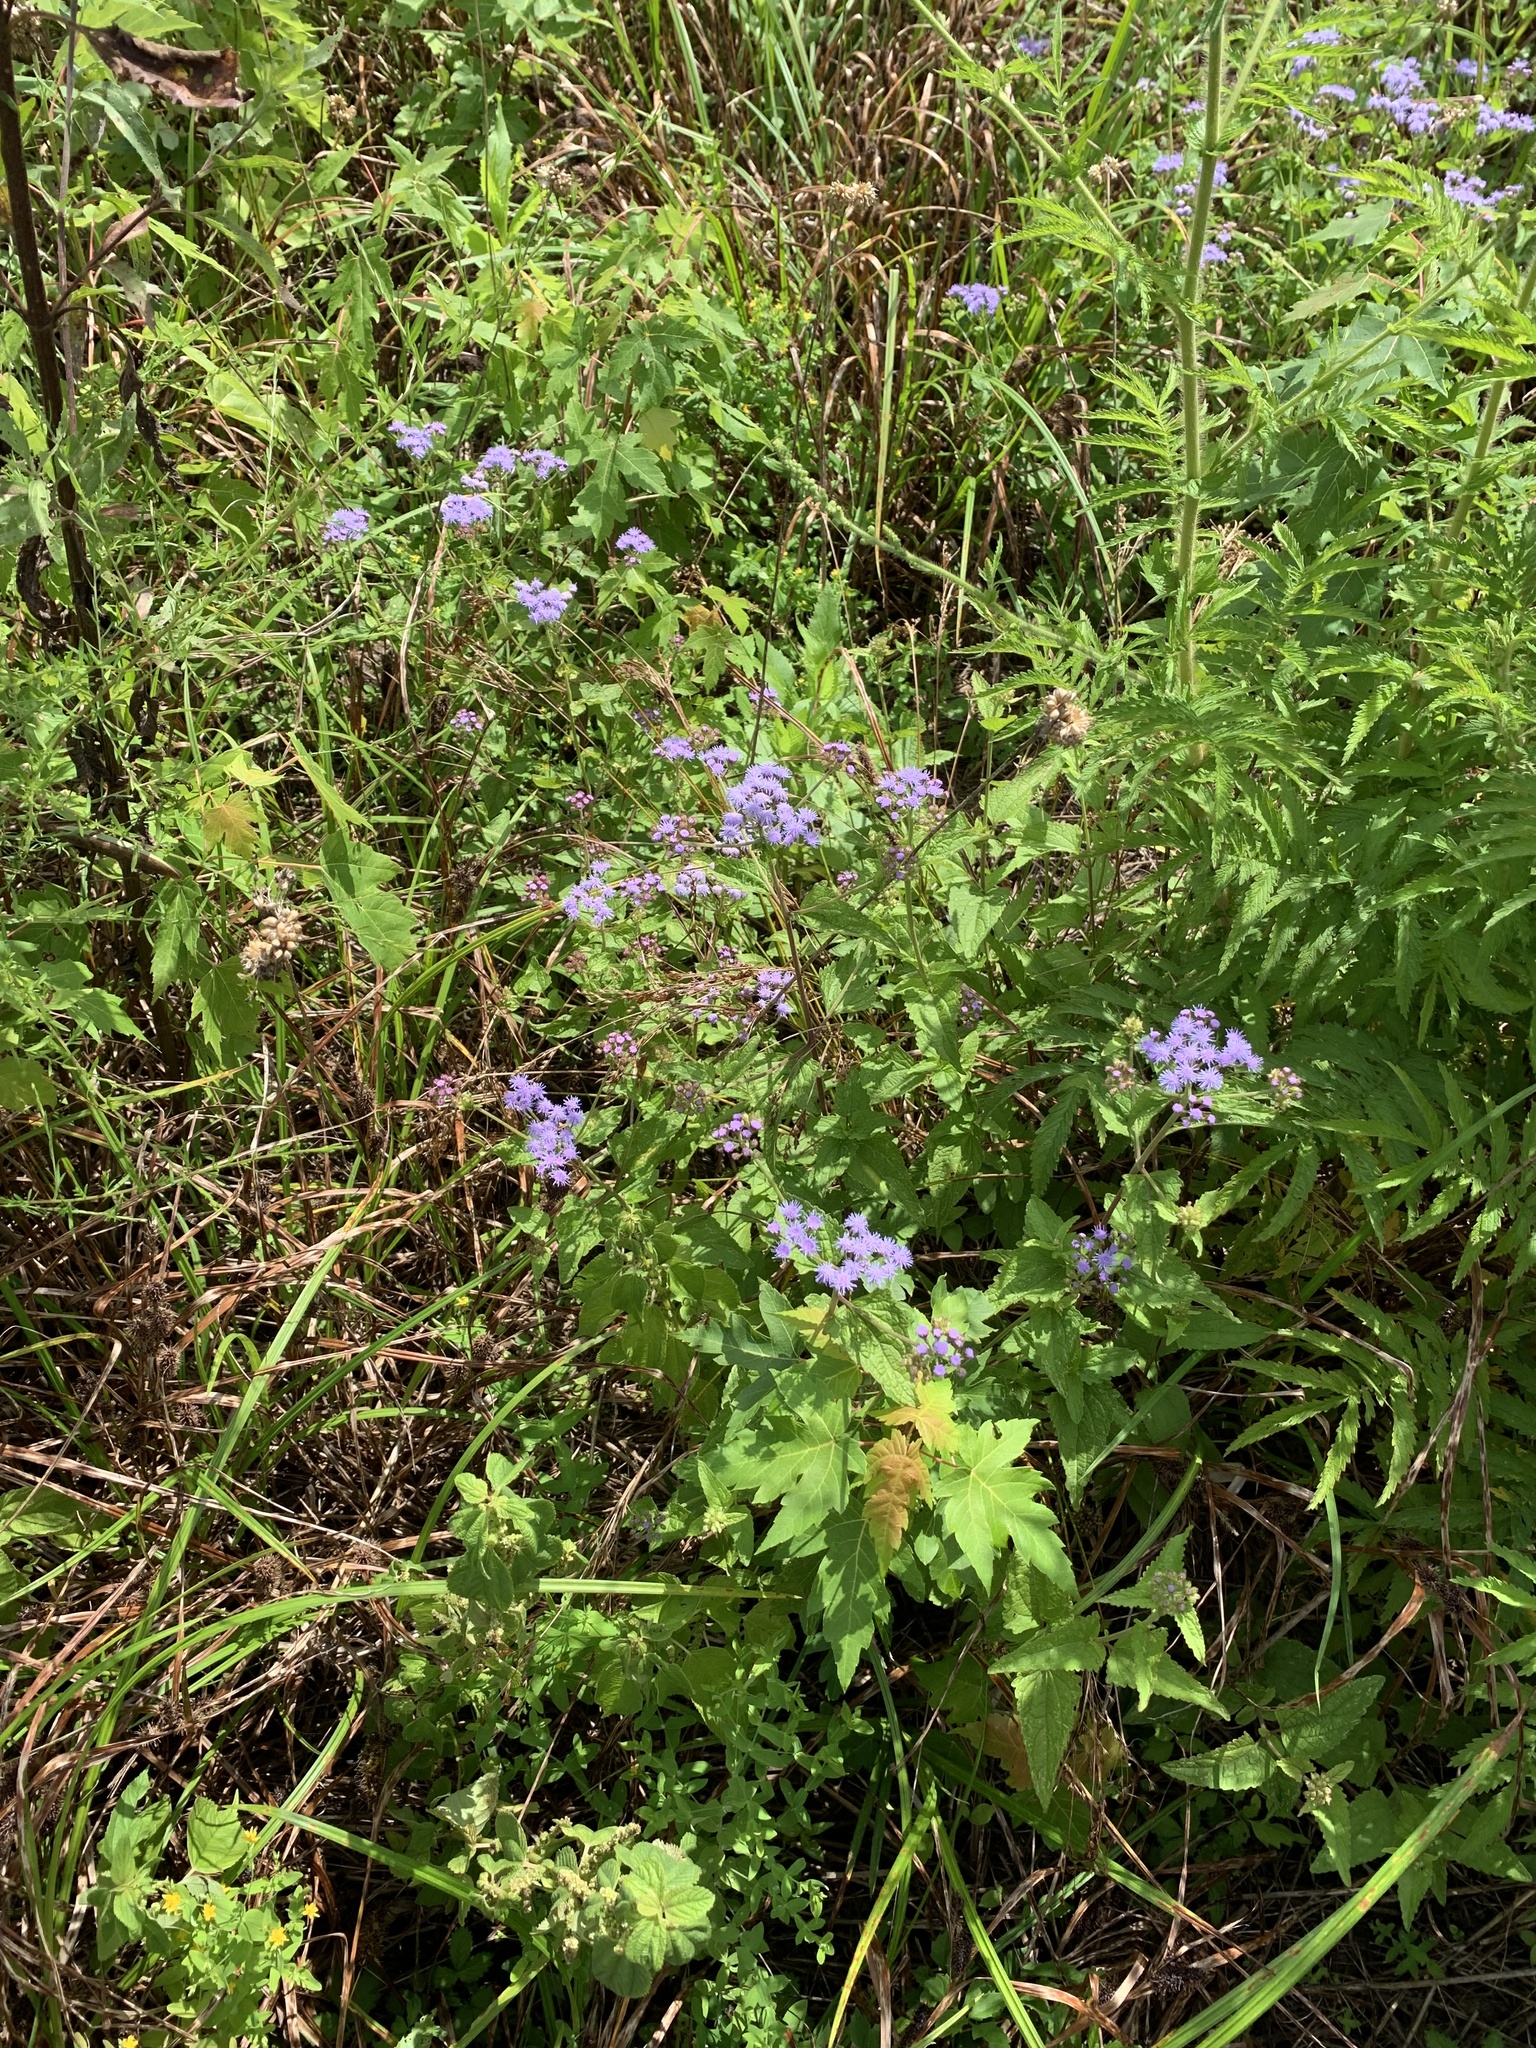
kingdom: Plantae
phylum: Tracheophyta
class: Magnoliopsida
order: Asterales
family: Asteraceae
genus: Conoclinium
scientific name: Conoclinium coelestinum
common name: Blue mistflower
